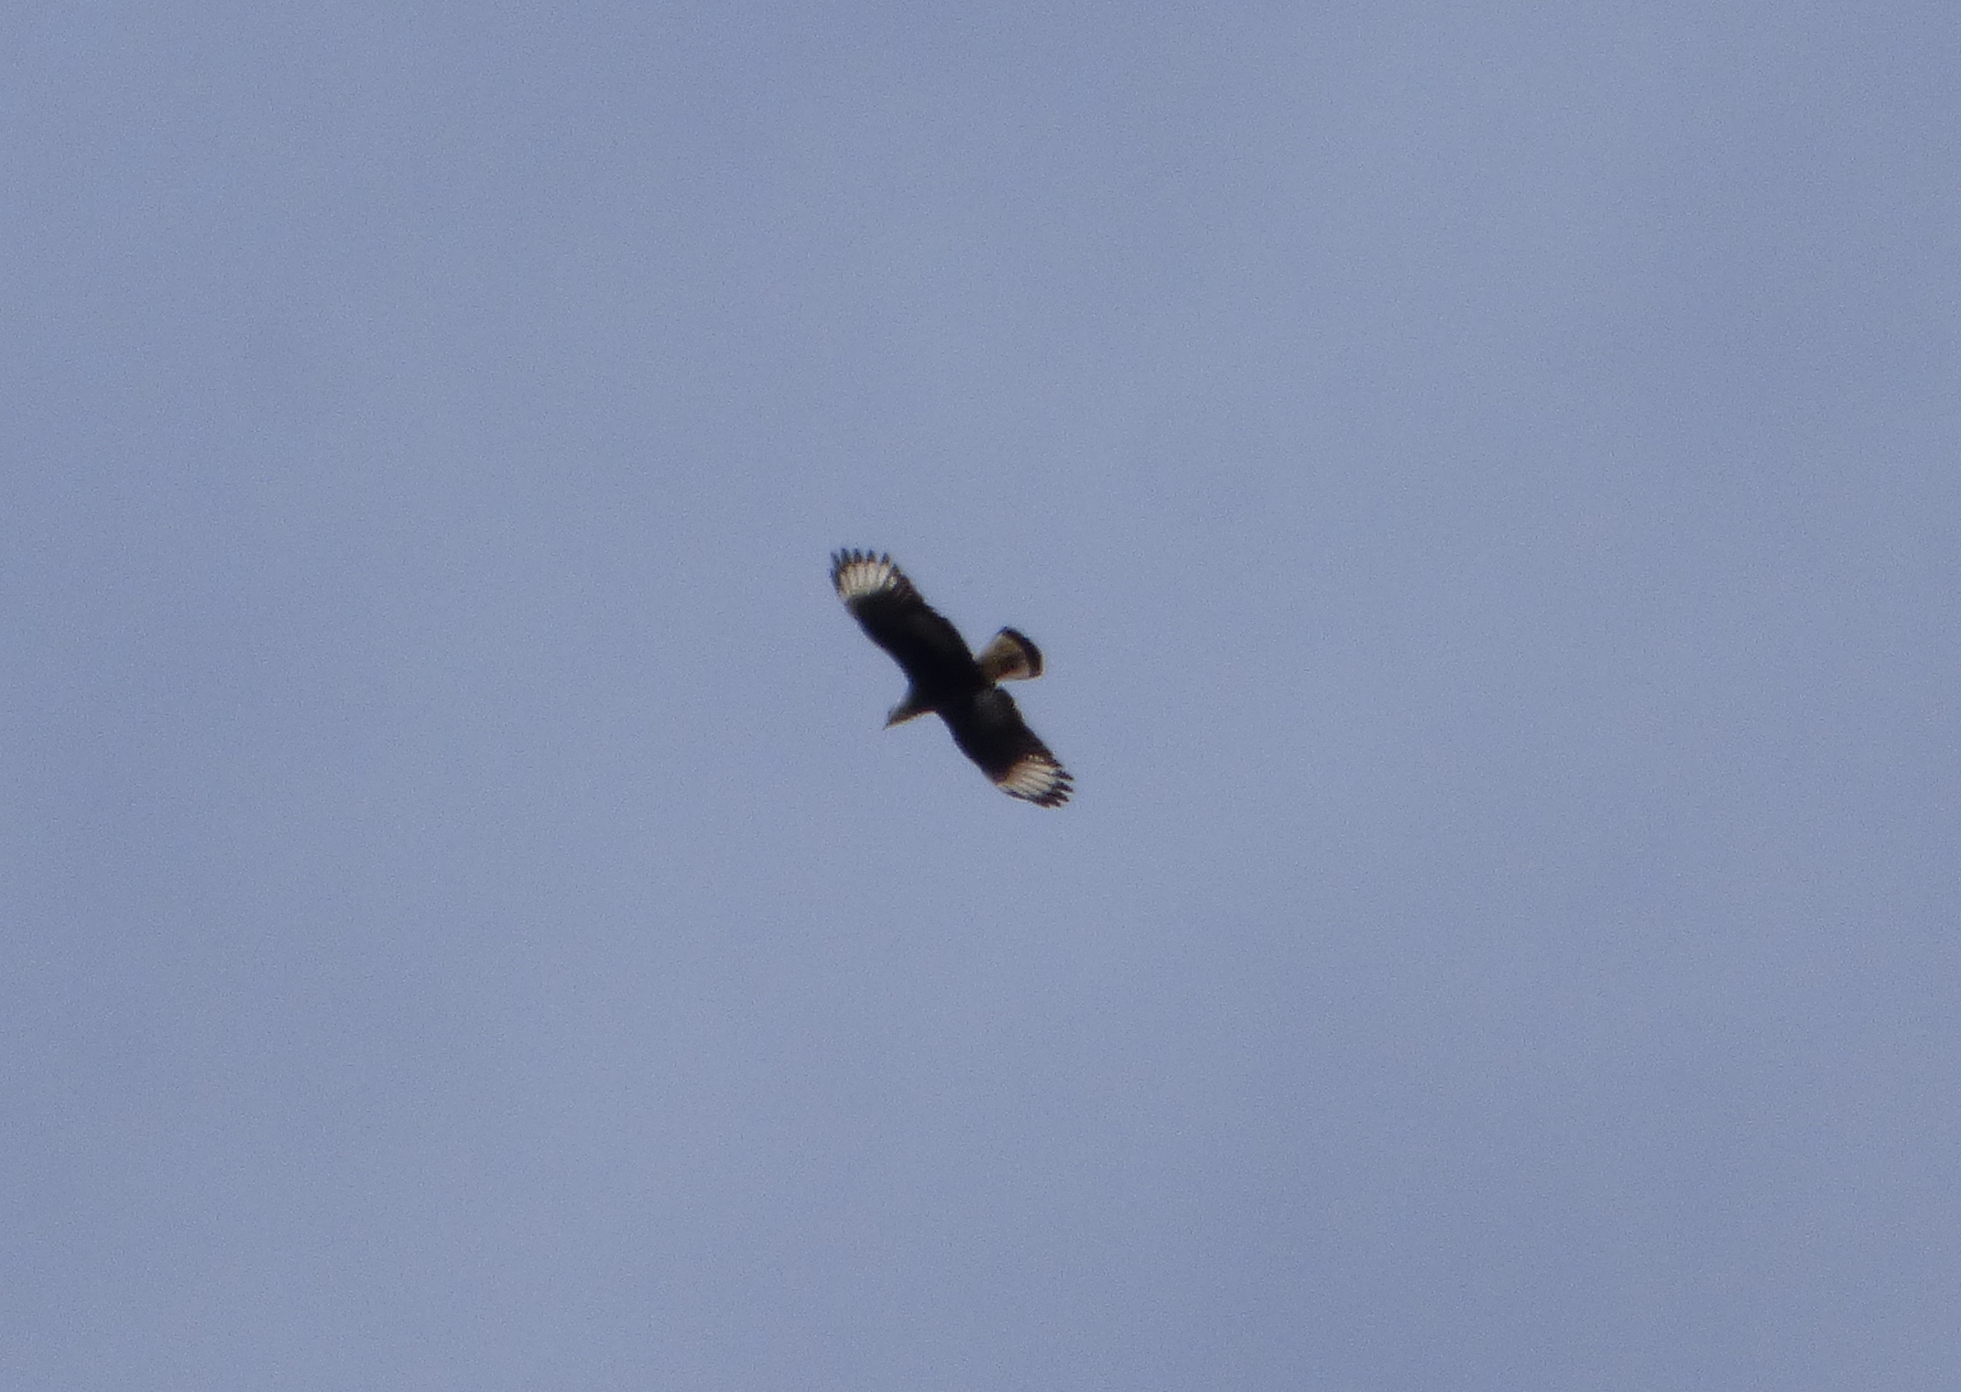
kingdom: Animalia
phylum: Chordata
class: Aves
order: Falconiformes
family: Falconidae
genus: Caracara
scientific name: Caracara plancus
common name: Southern caracara
